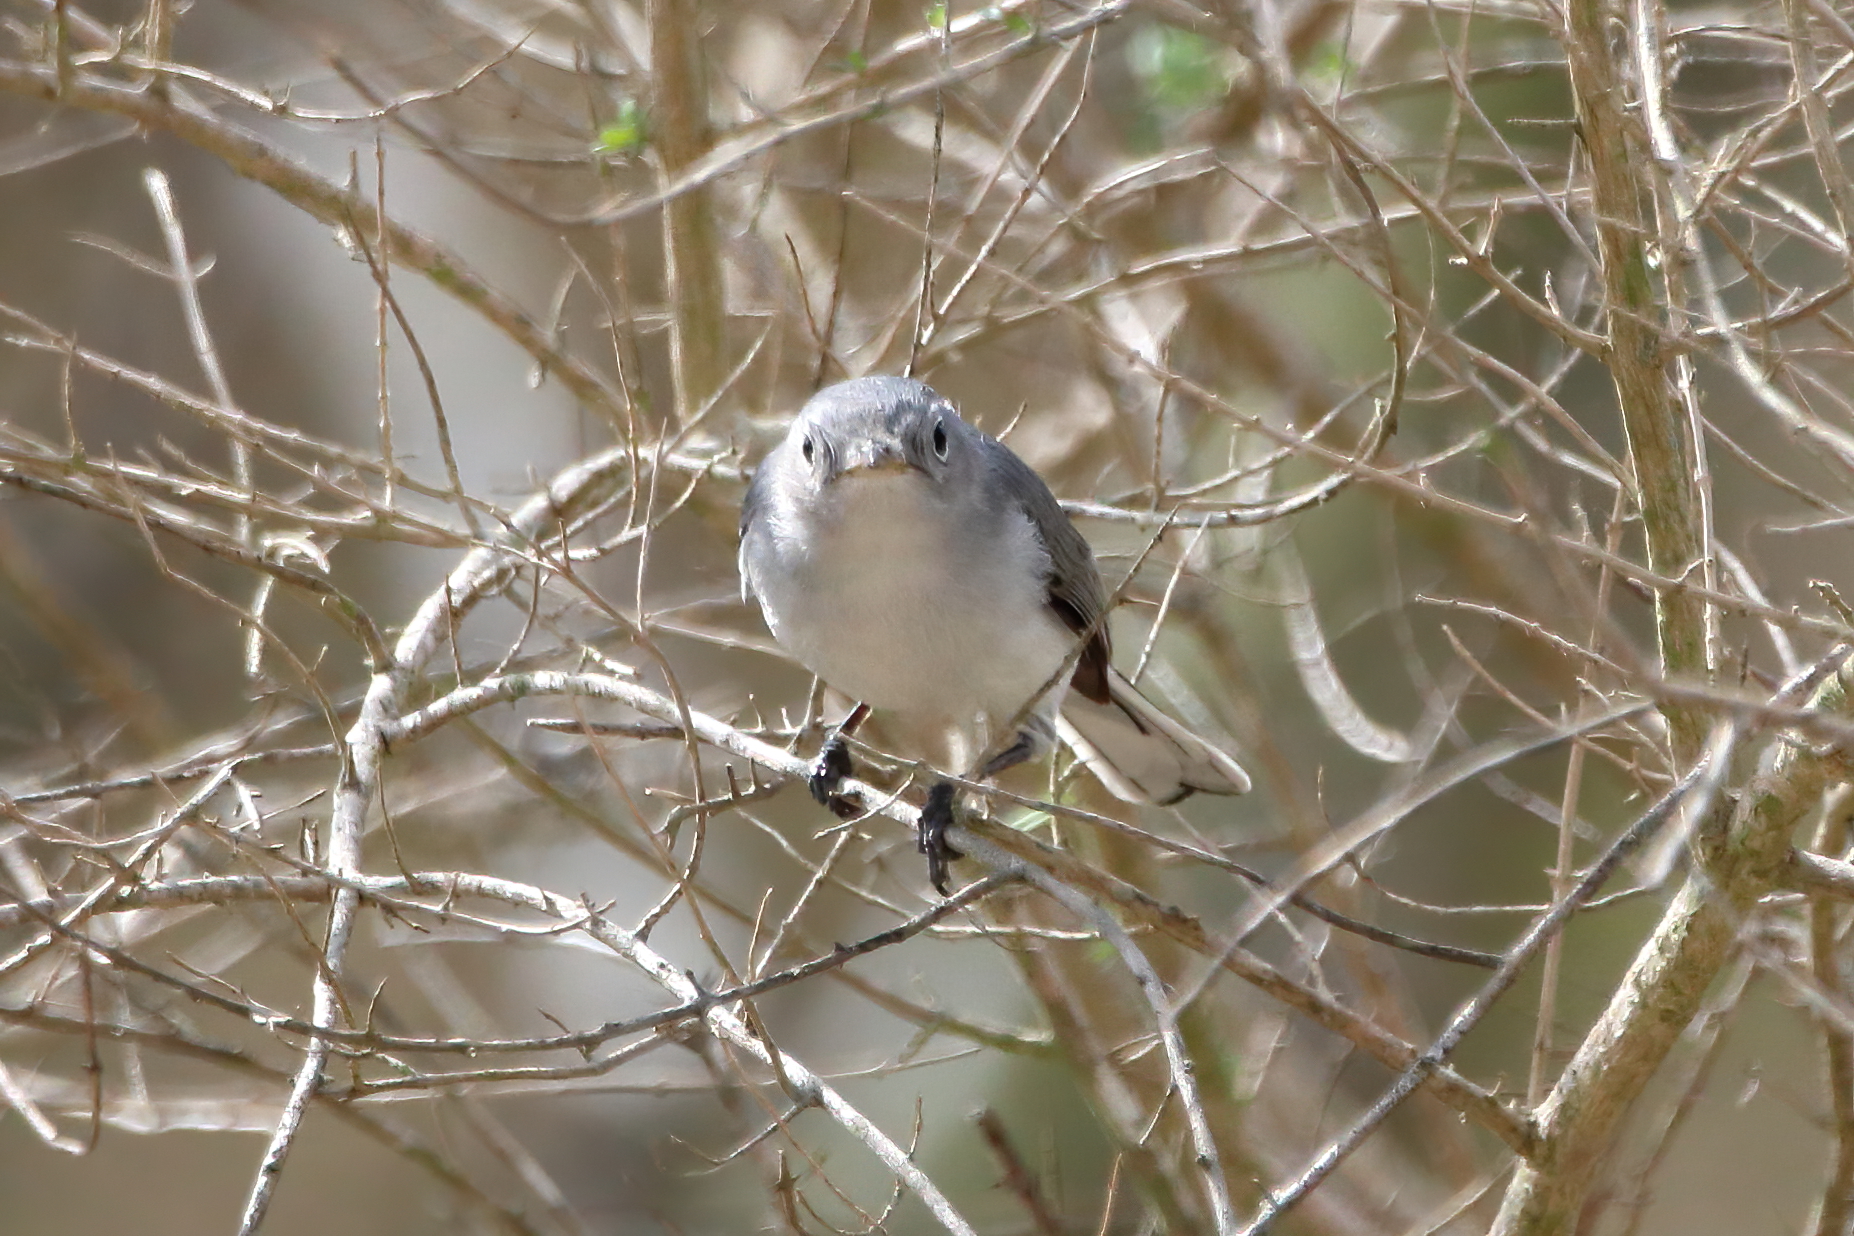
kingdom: Animalia
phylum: Chordata
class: Aves
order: Passeriformes
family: Polioptilidae
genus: Polioptila
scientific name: Polioptila caerulea
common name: Blue-gray gnatcatcher
